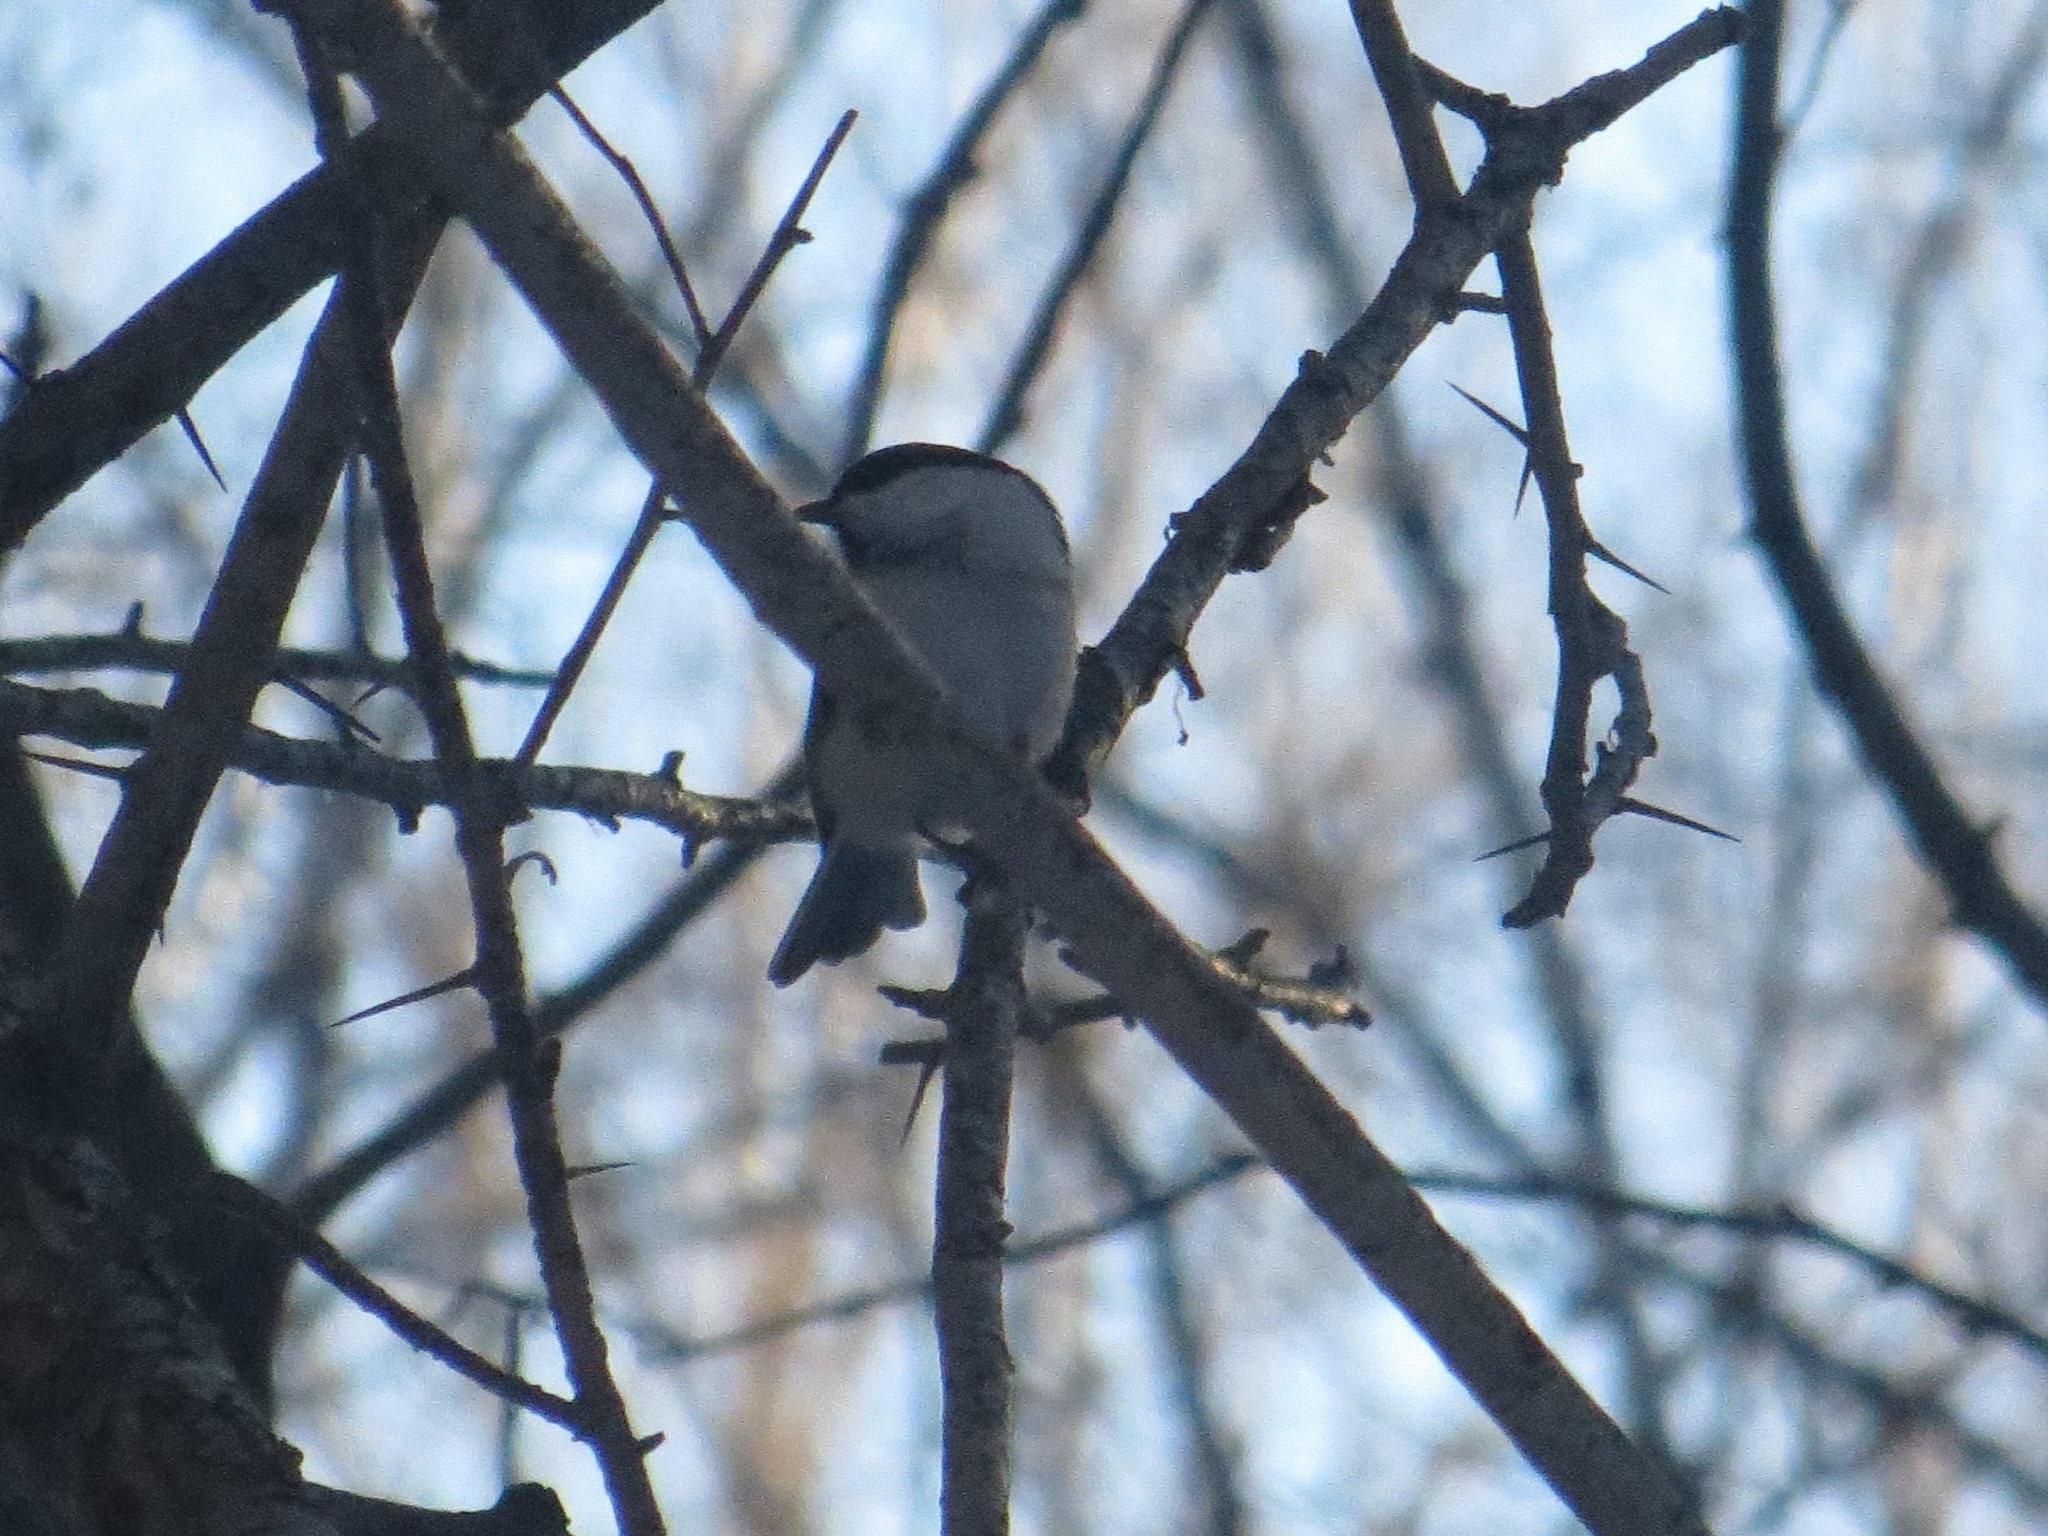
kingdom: Animalia
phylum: Chordata
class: Aves
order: Passeriformes
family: Paridae
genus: Poecile
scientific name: Poecile montanus
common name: Willow tit
